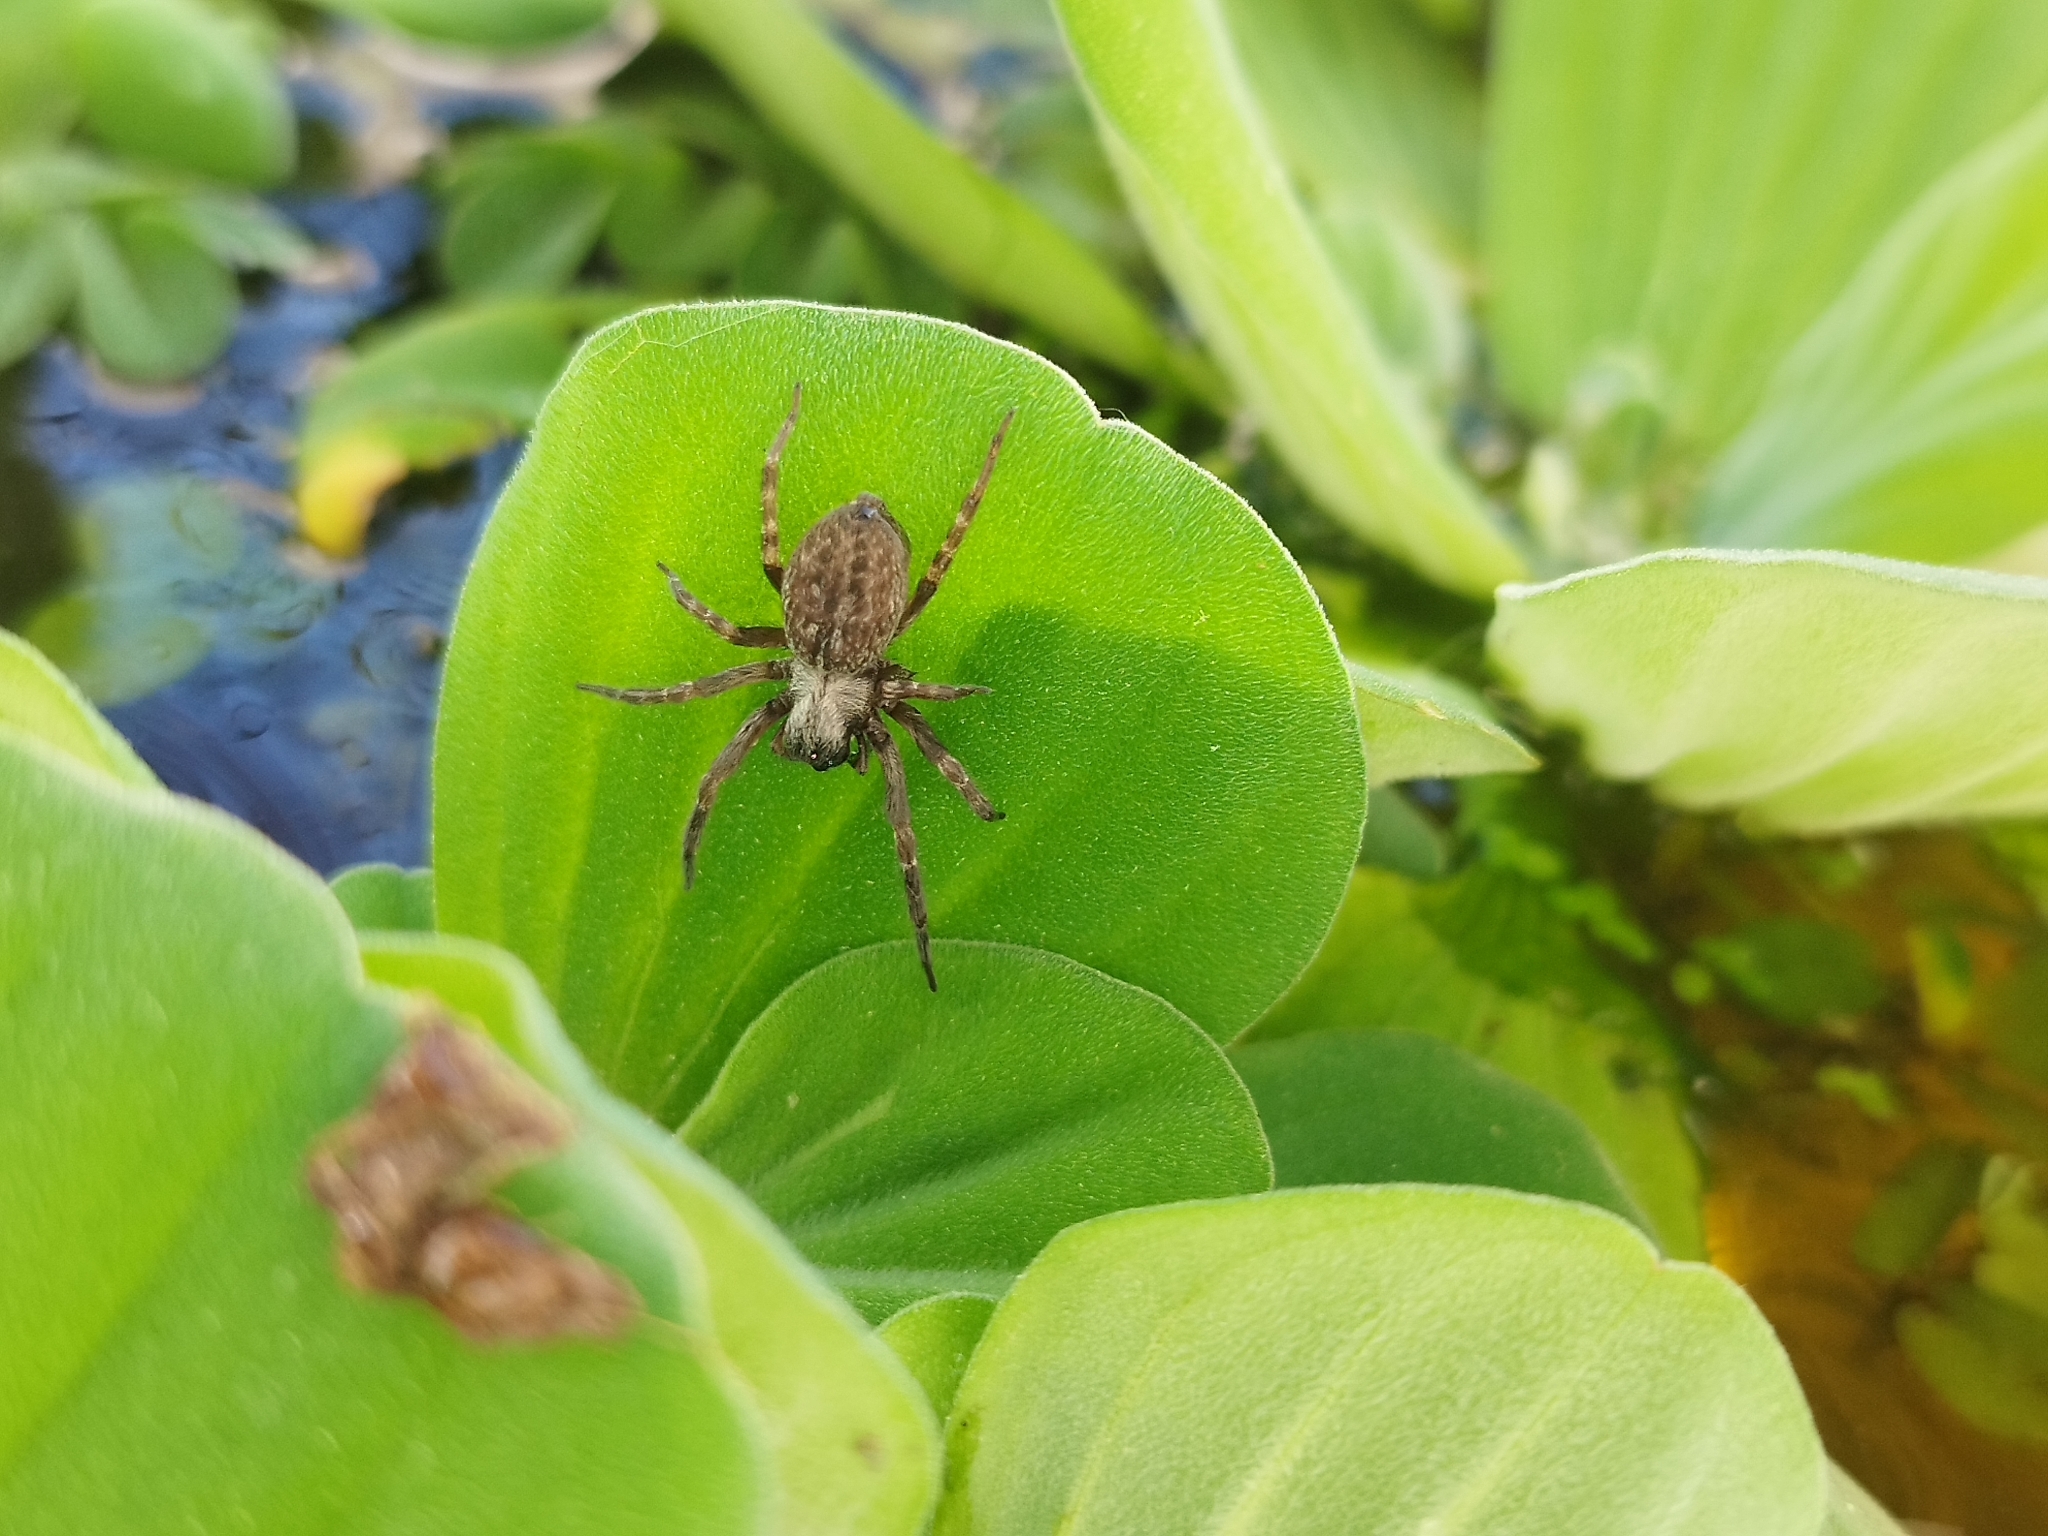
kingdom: Animalia
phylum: Arthropoda
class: Arachnida
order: Araneae
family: Desidae
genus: Badumna
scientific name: Badumna longinqua
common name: Gray house spider
